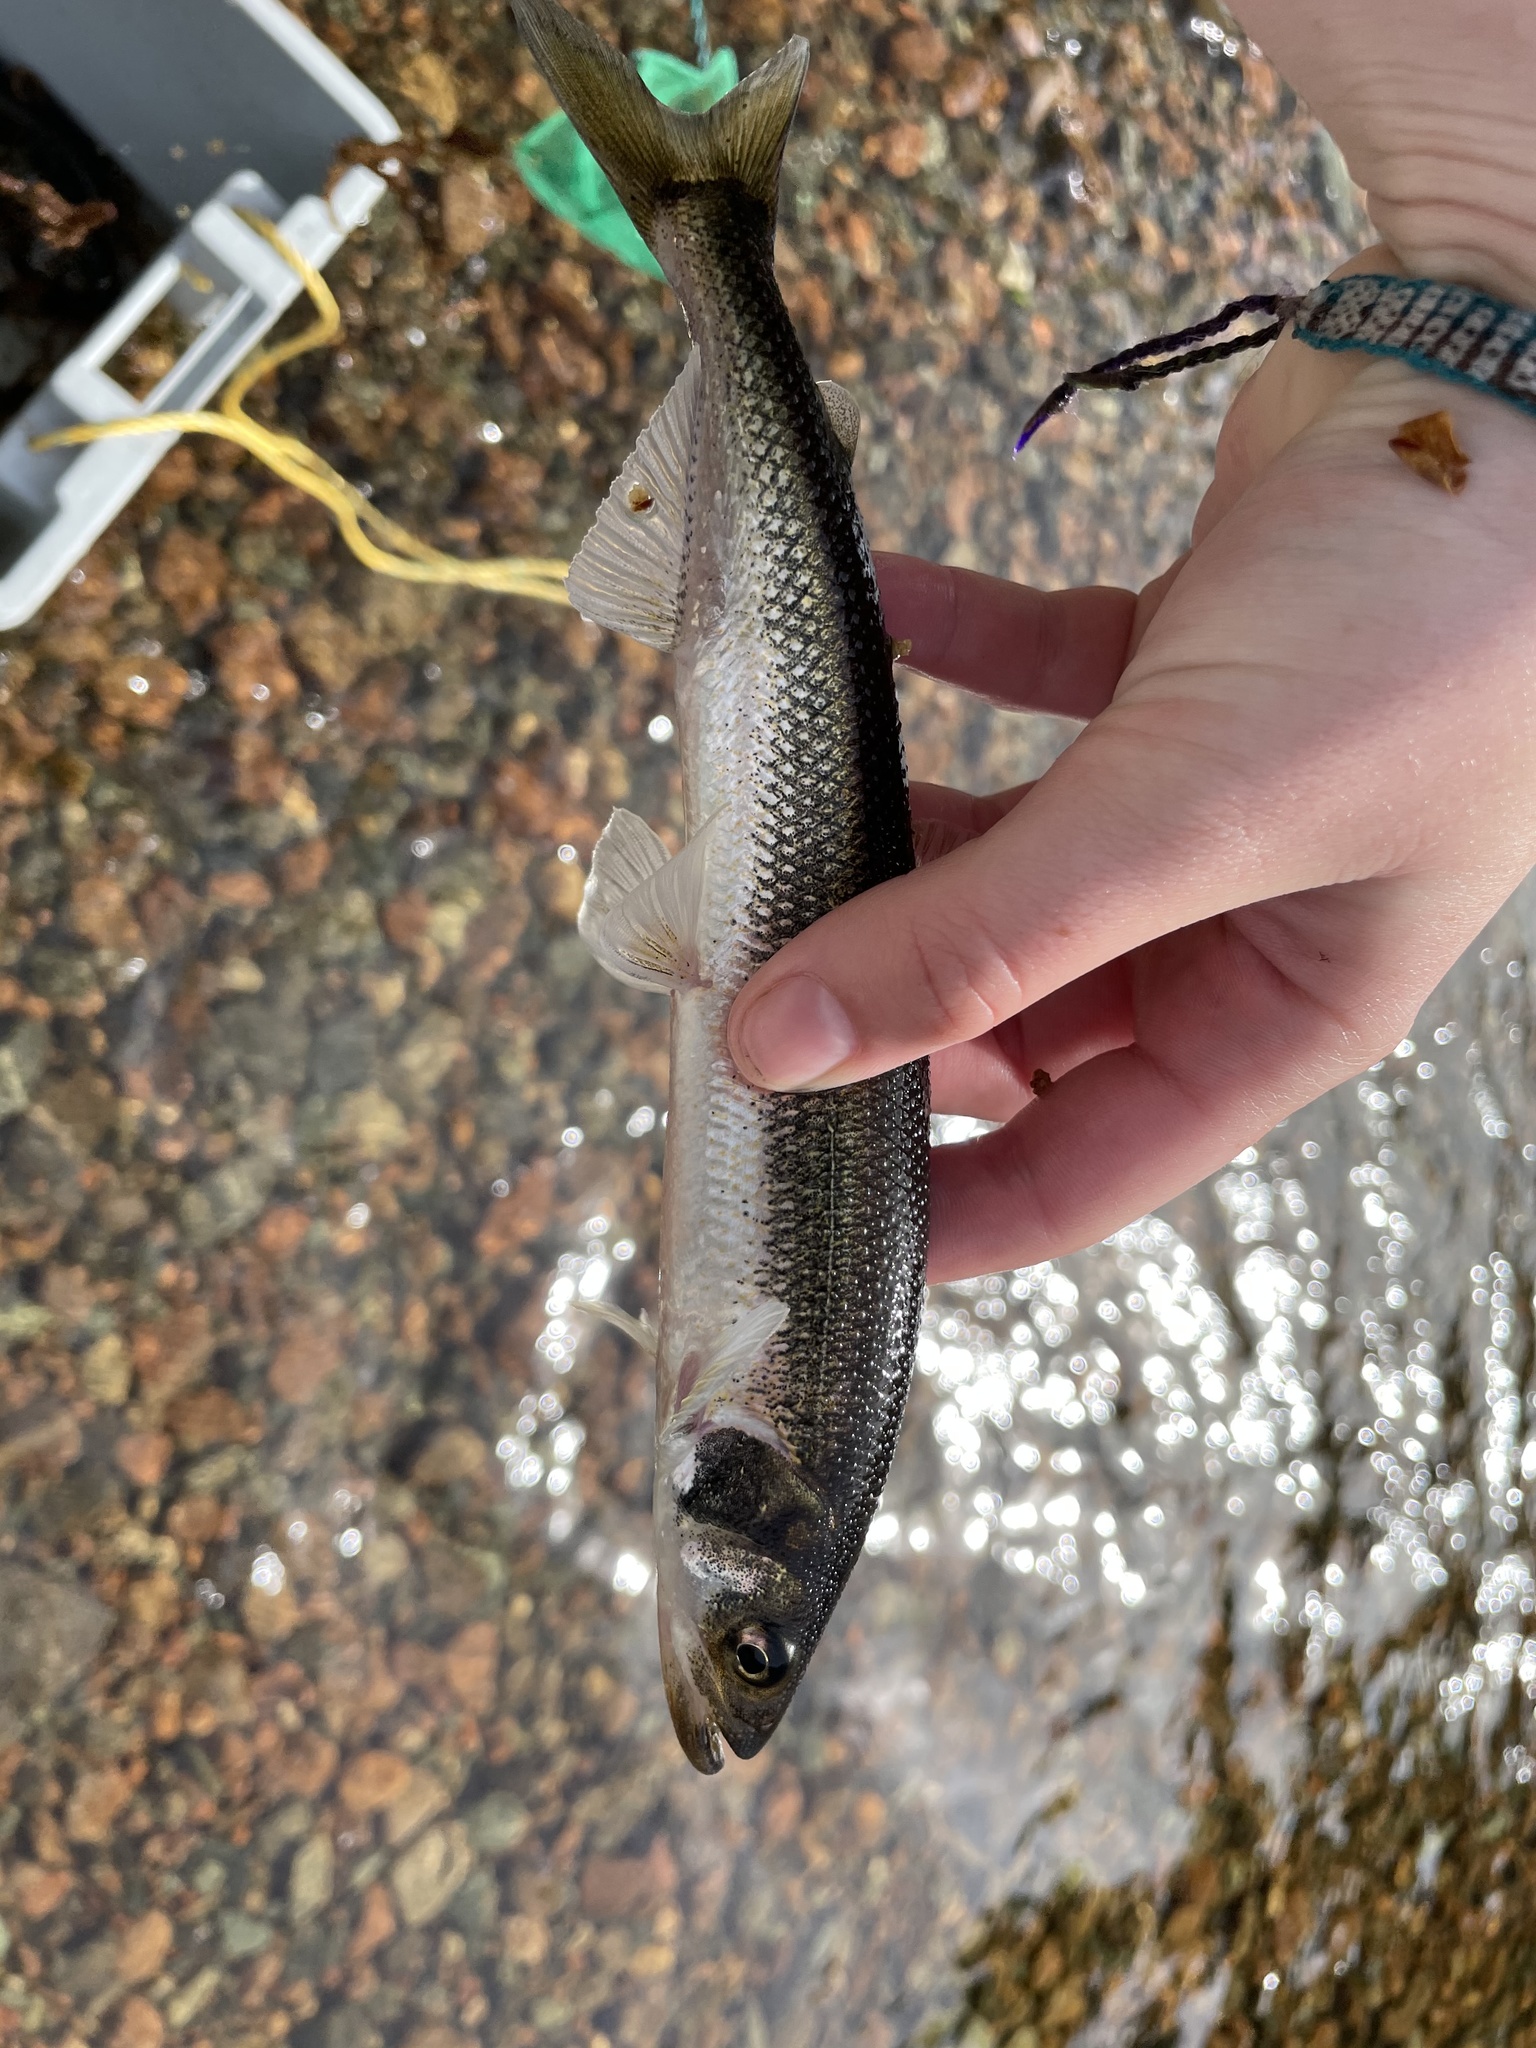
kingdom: Animalia
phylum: Chordata
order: Osmeriformes
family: Osmeridae
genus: Osmerus
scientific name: Osmerus mordax
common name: Rainbow smelt
